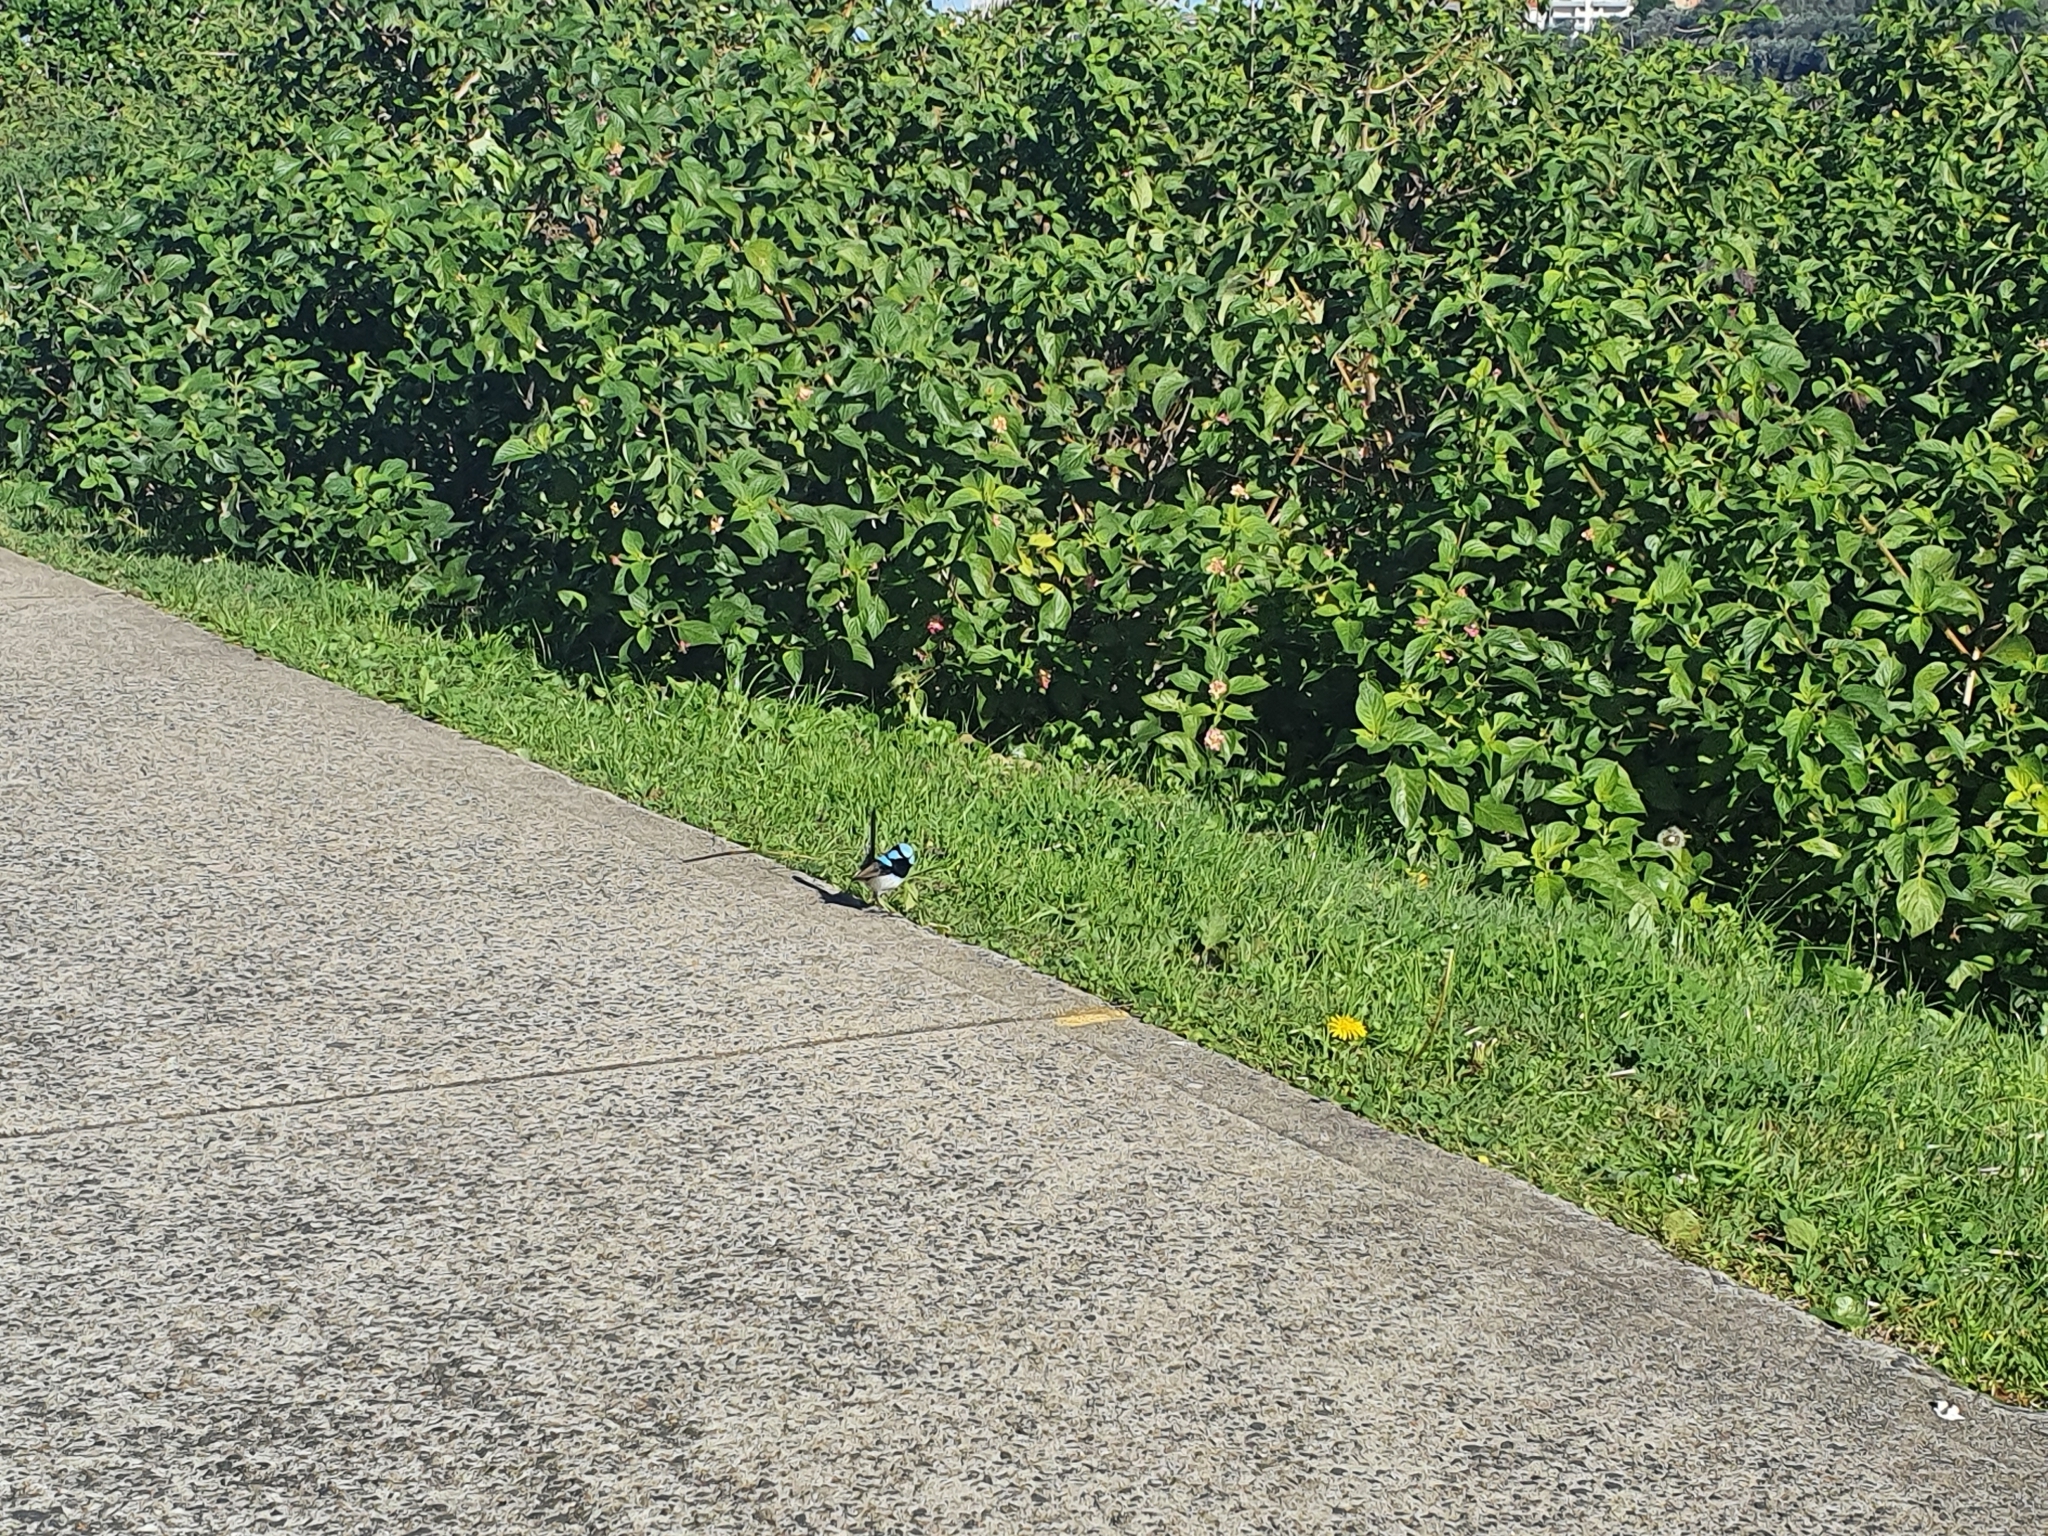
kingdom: Animalia
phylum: Chordata
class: Aves
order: Passeriformes
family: Maluridae
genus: Malurus
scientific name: Malurus cyaneus
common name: Superb fairywren
